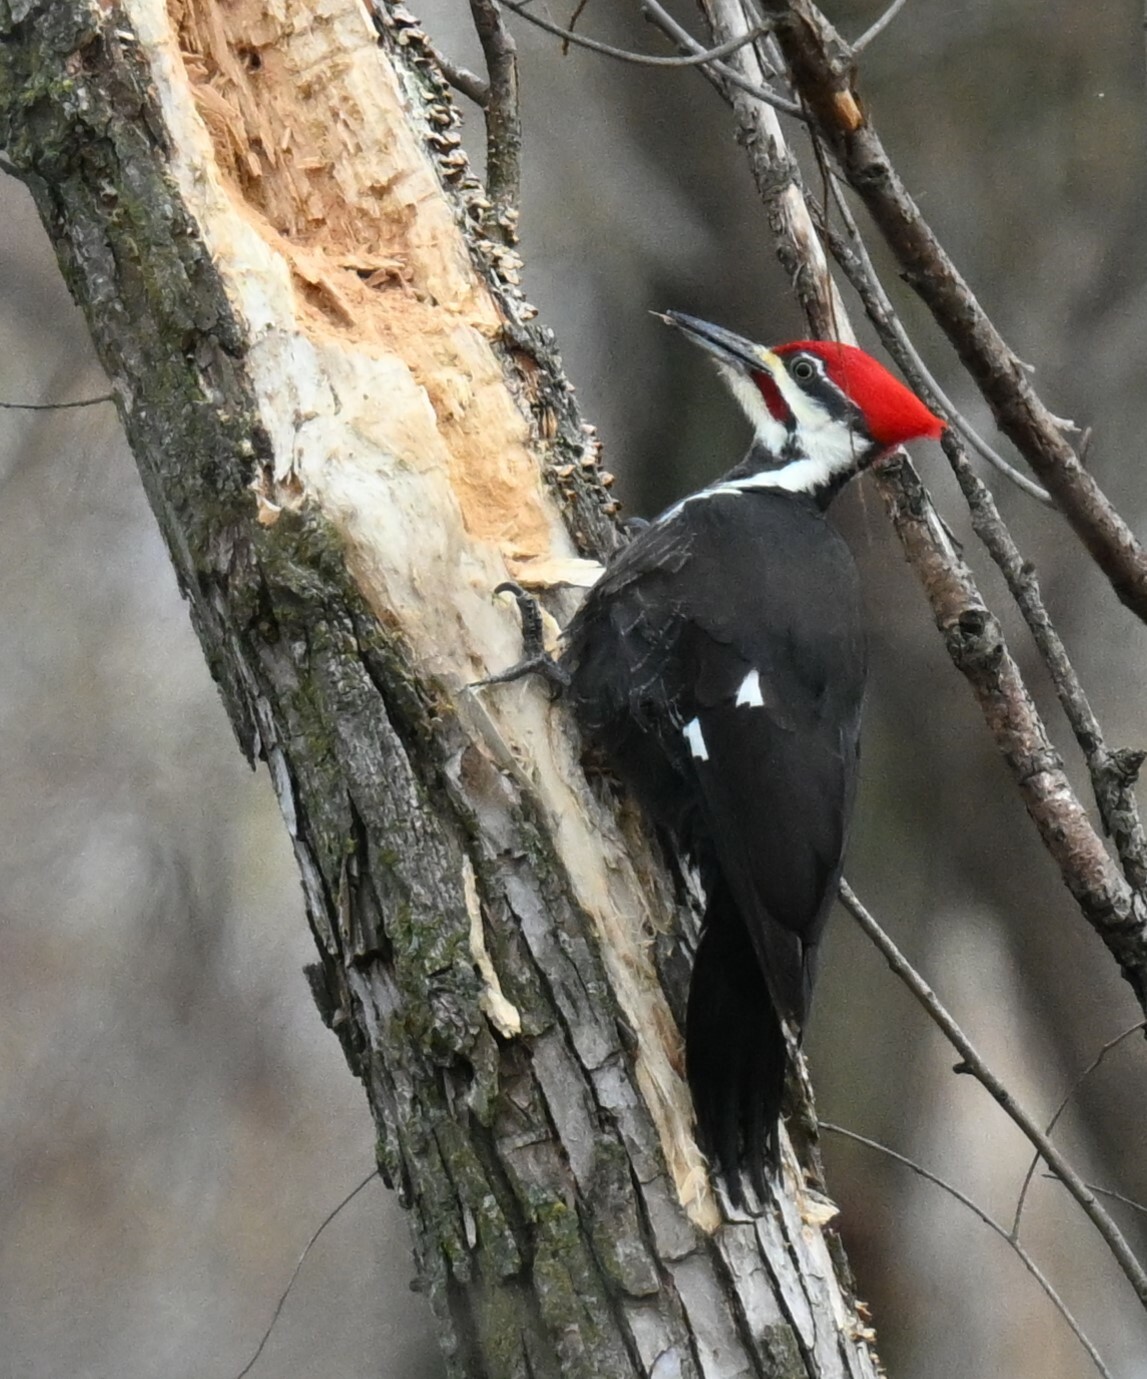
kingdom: Animalia
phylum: Chordata
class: Aves
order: Piciformes
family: Picidae
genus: Dryocopus
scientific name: Dryocopus pileatus
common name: Pileated woodpecker
